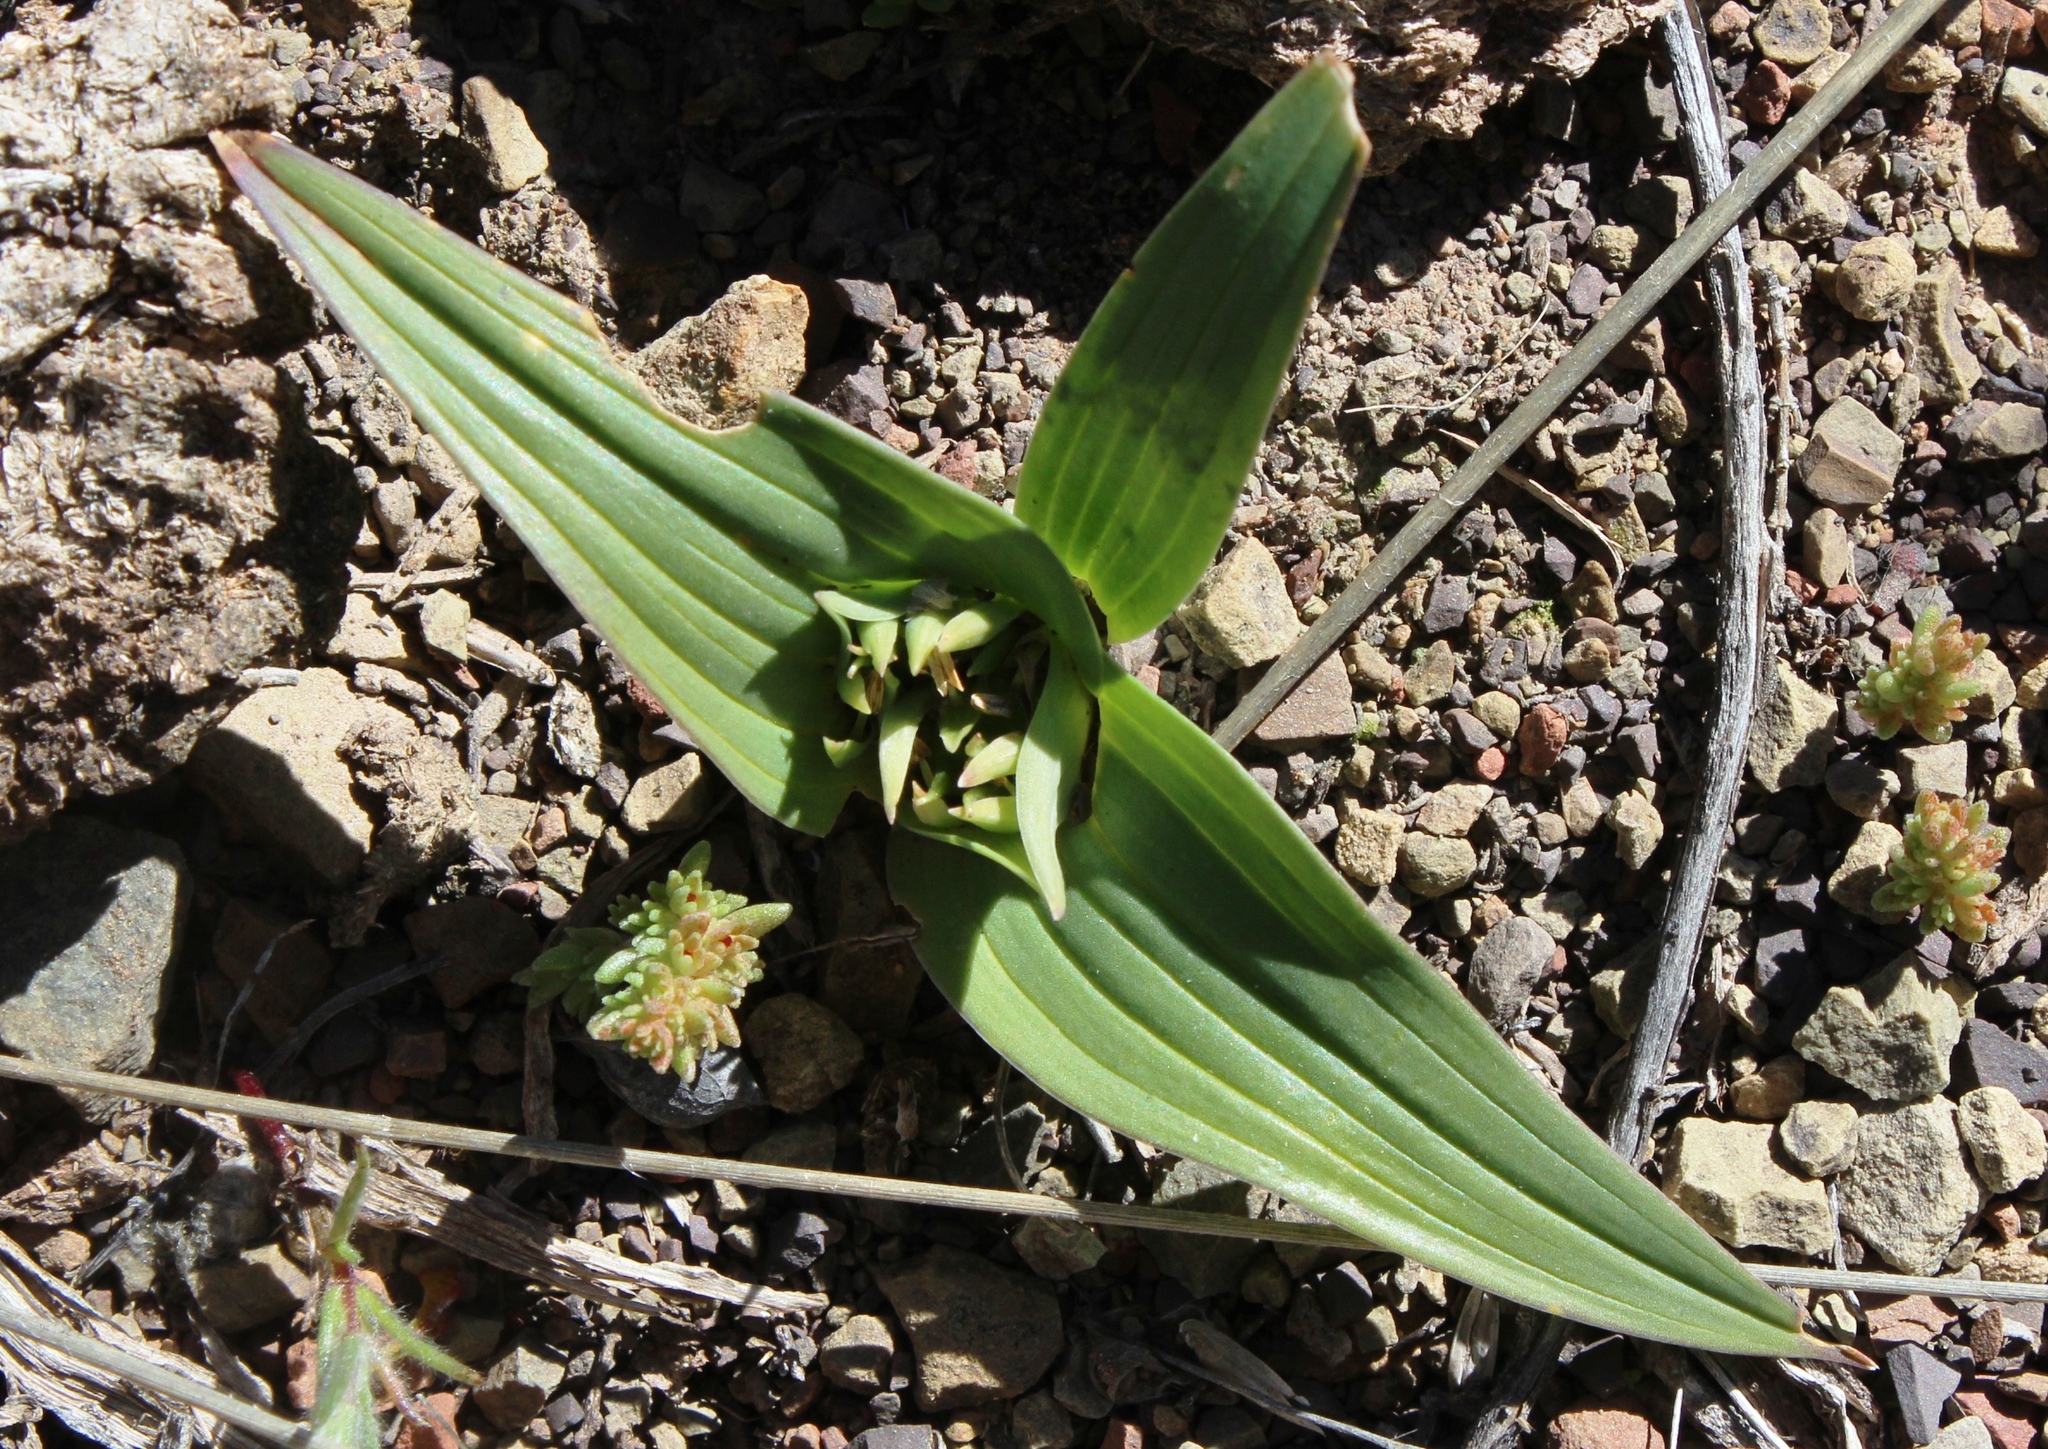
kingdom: Plantae
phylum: Tracheophyta
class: Liliopsida
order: Liliales
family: Colchicaceae
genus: Colchicum
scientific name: Colchicum cuspidatum
